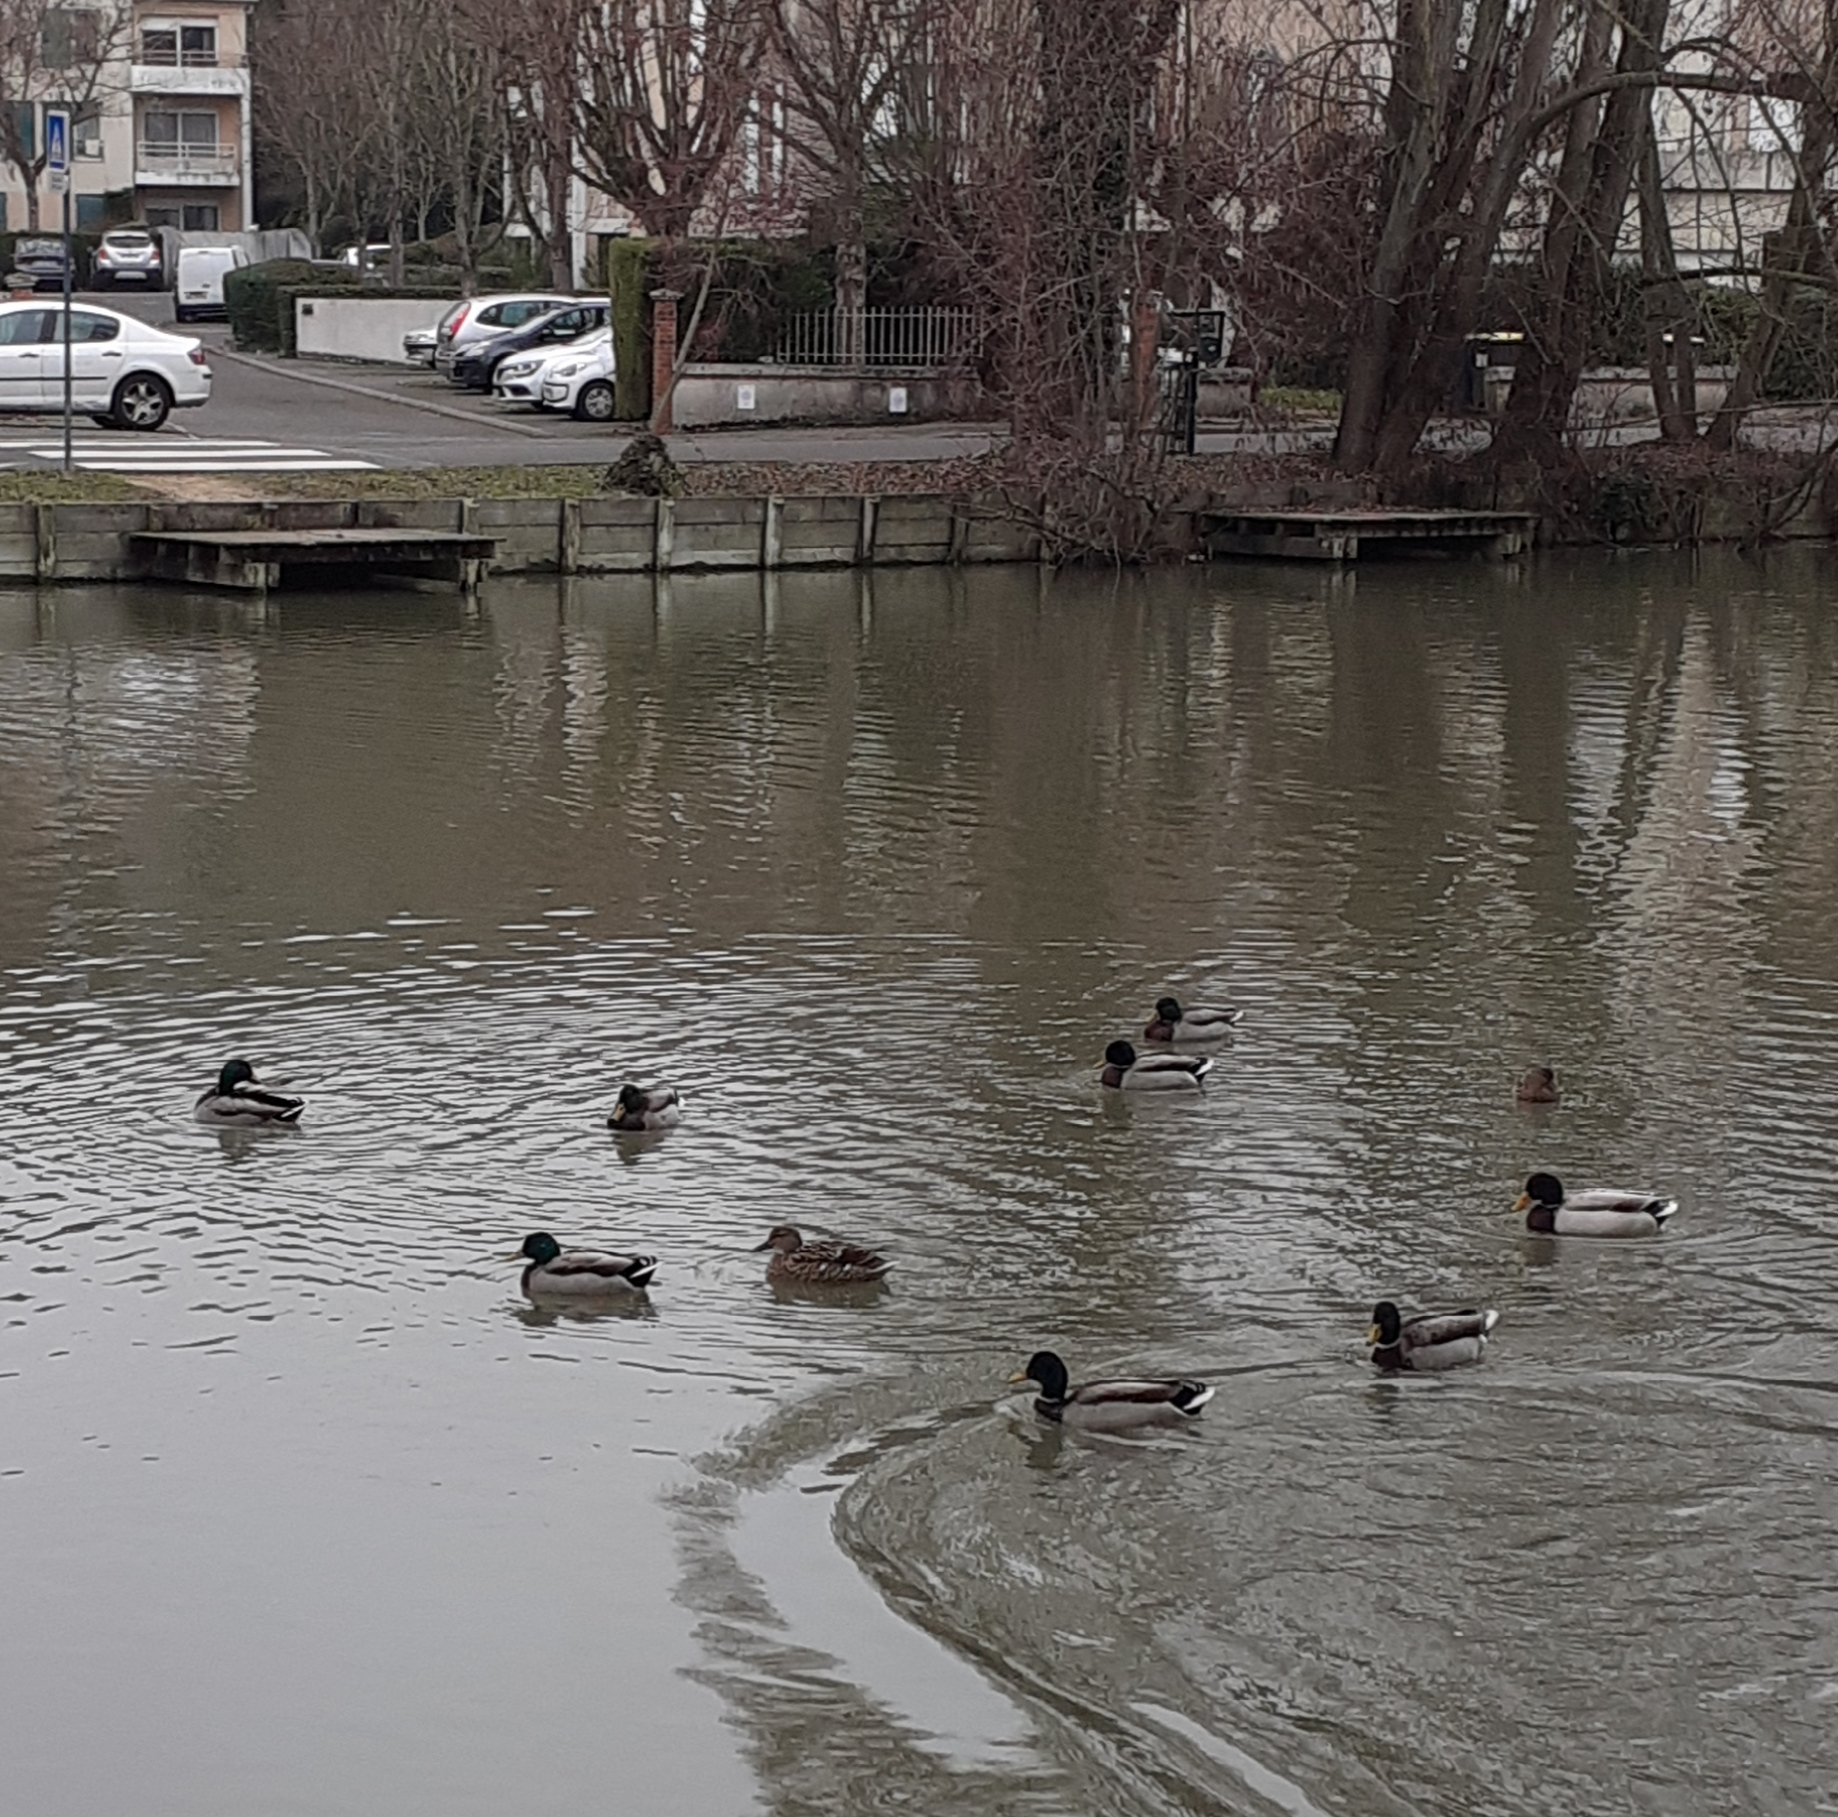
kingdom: Animalia
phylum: Chordata
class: Aves
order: Anseriformes
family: Anatidae
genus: Anas
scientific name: Anas platyrhynchos
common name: Mallard
